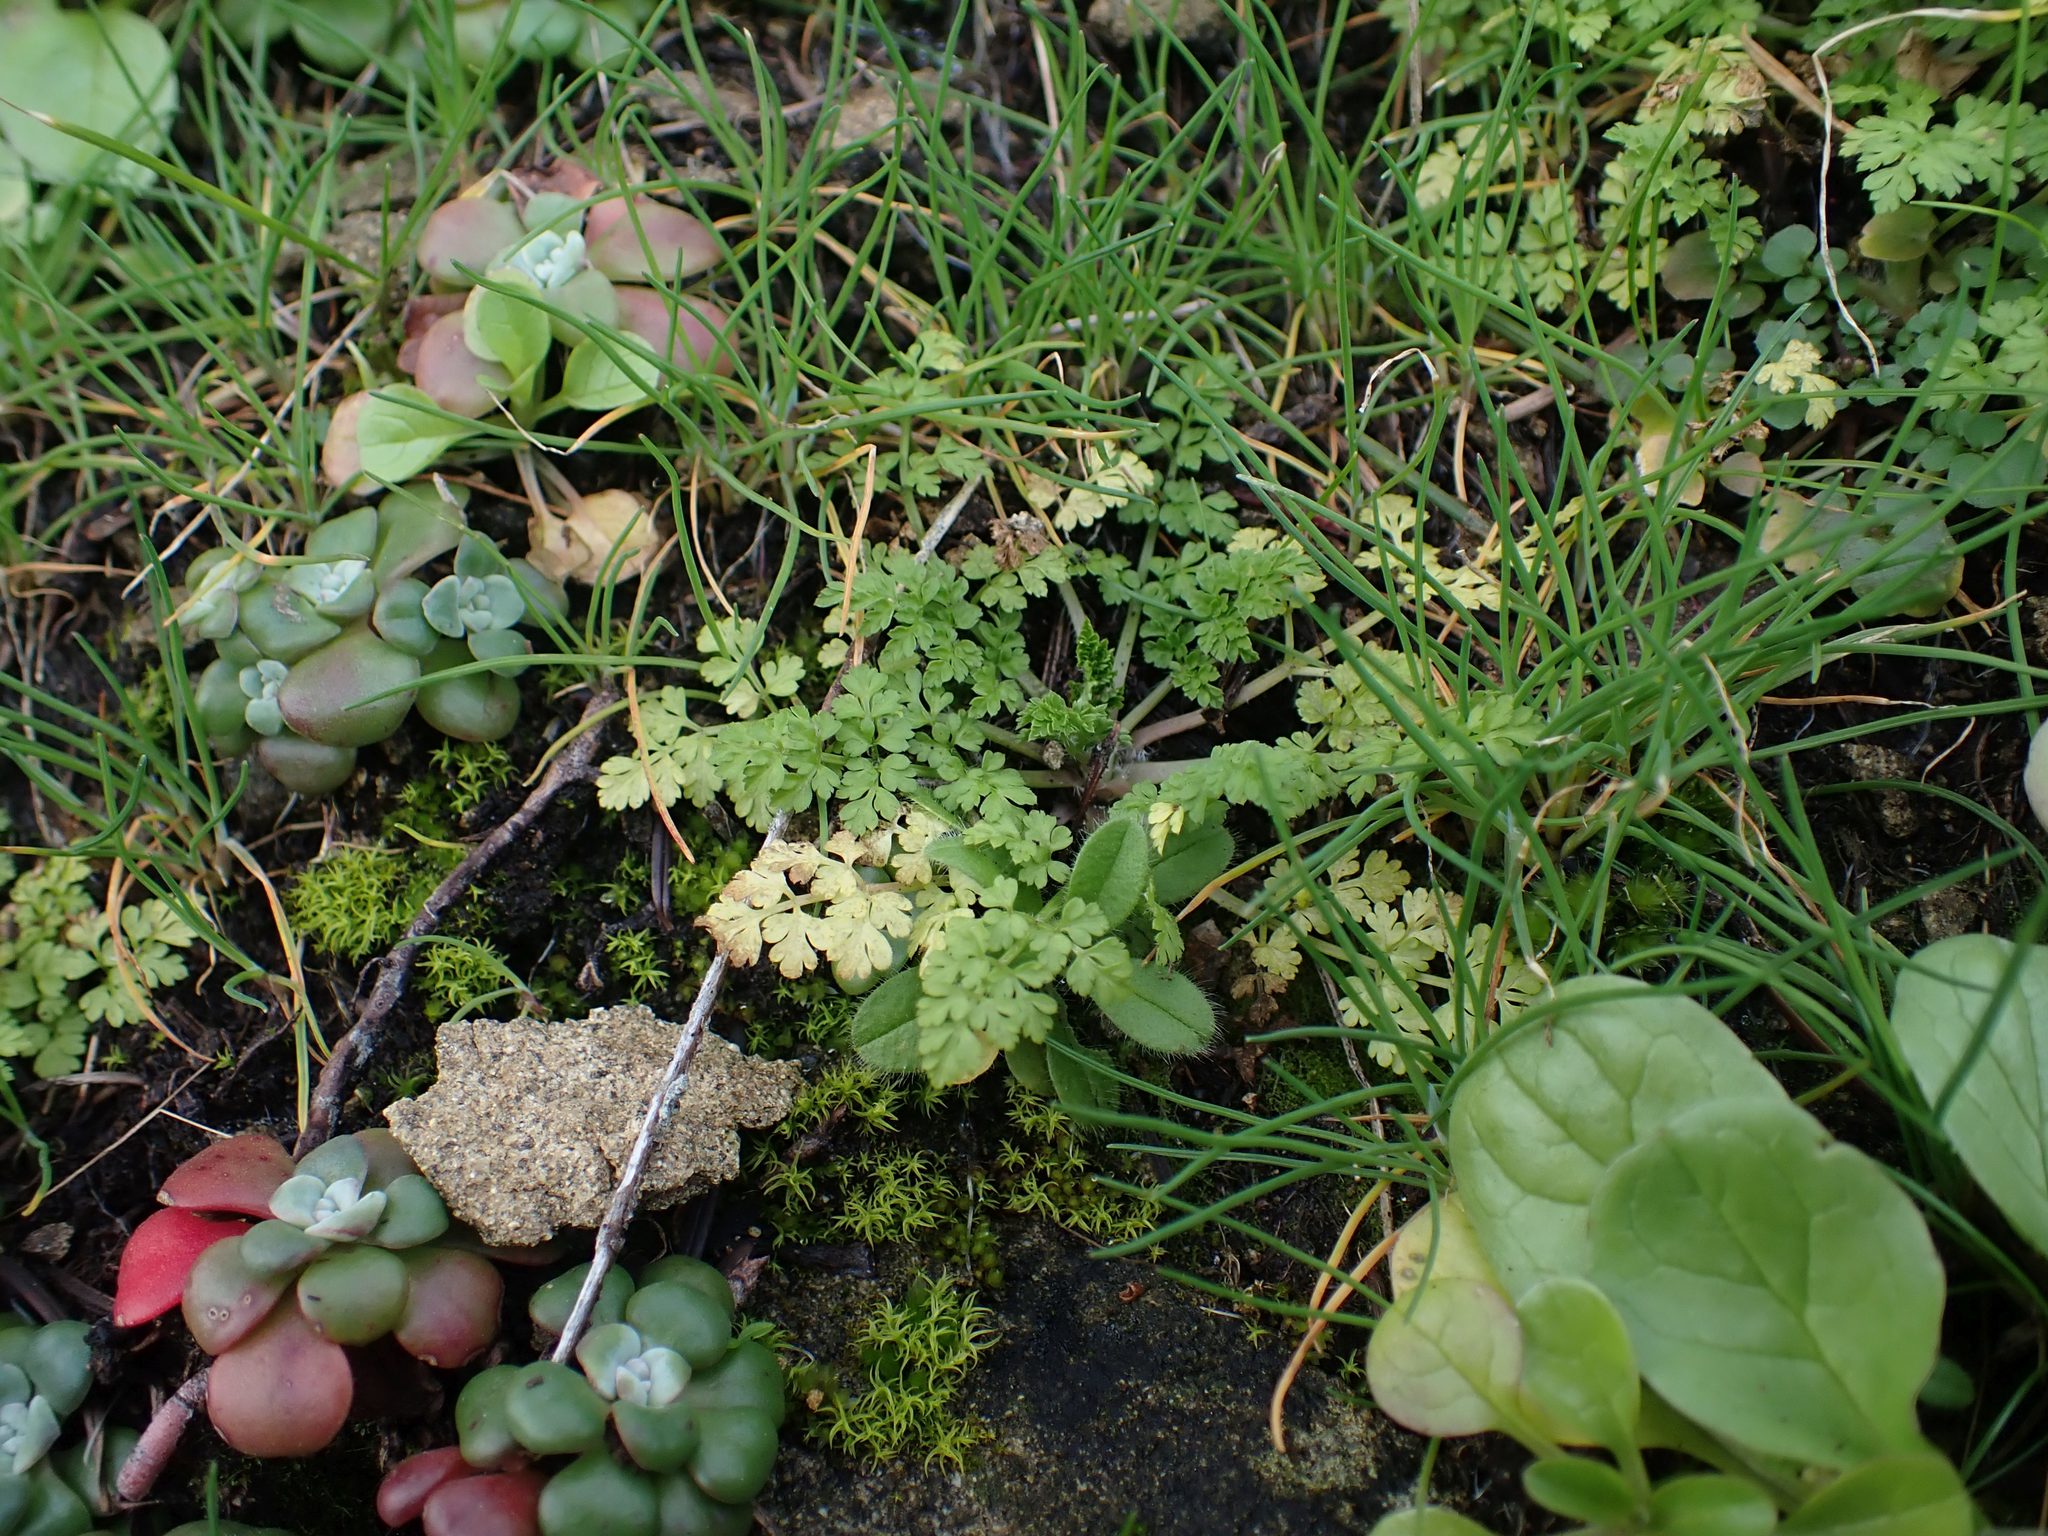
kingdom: Plantae
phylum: Tracheophyta
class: Magnoliopsida
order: Apiales
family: Apiaceae
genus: Anthriscus
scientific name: Anthriscus caucalis
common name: Bur chervil
